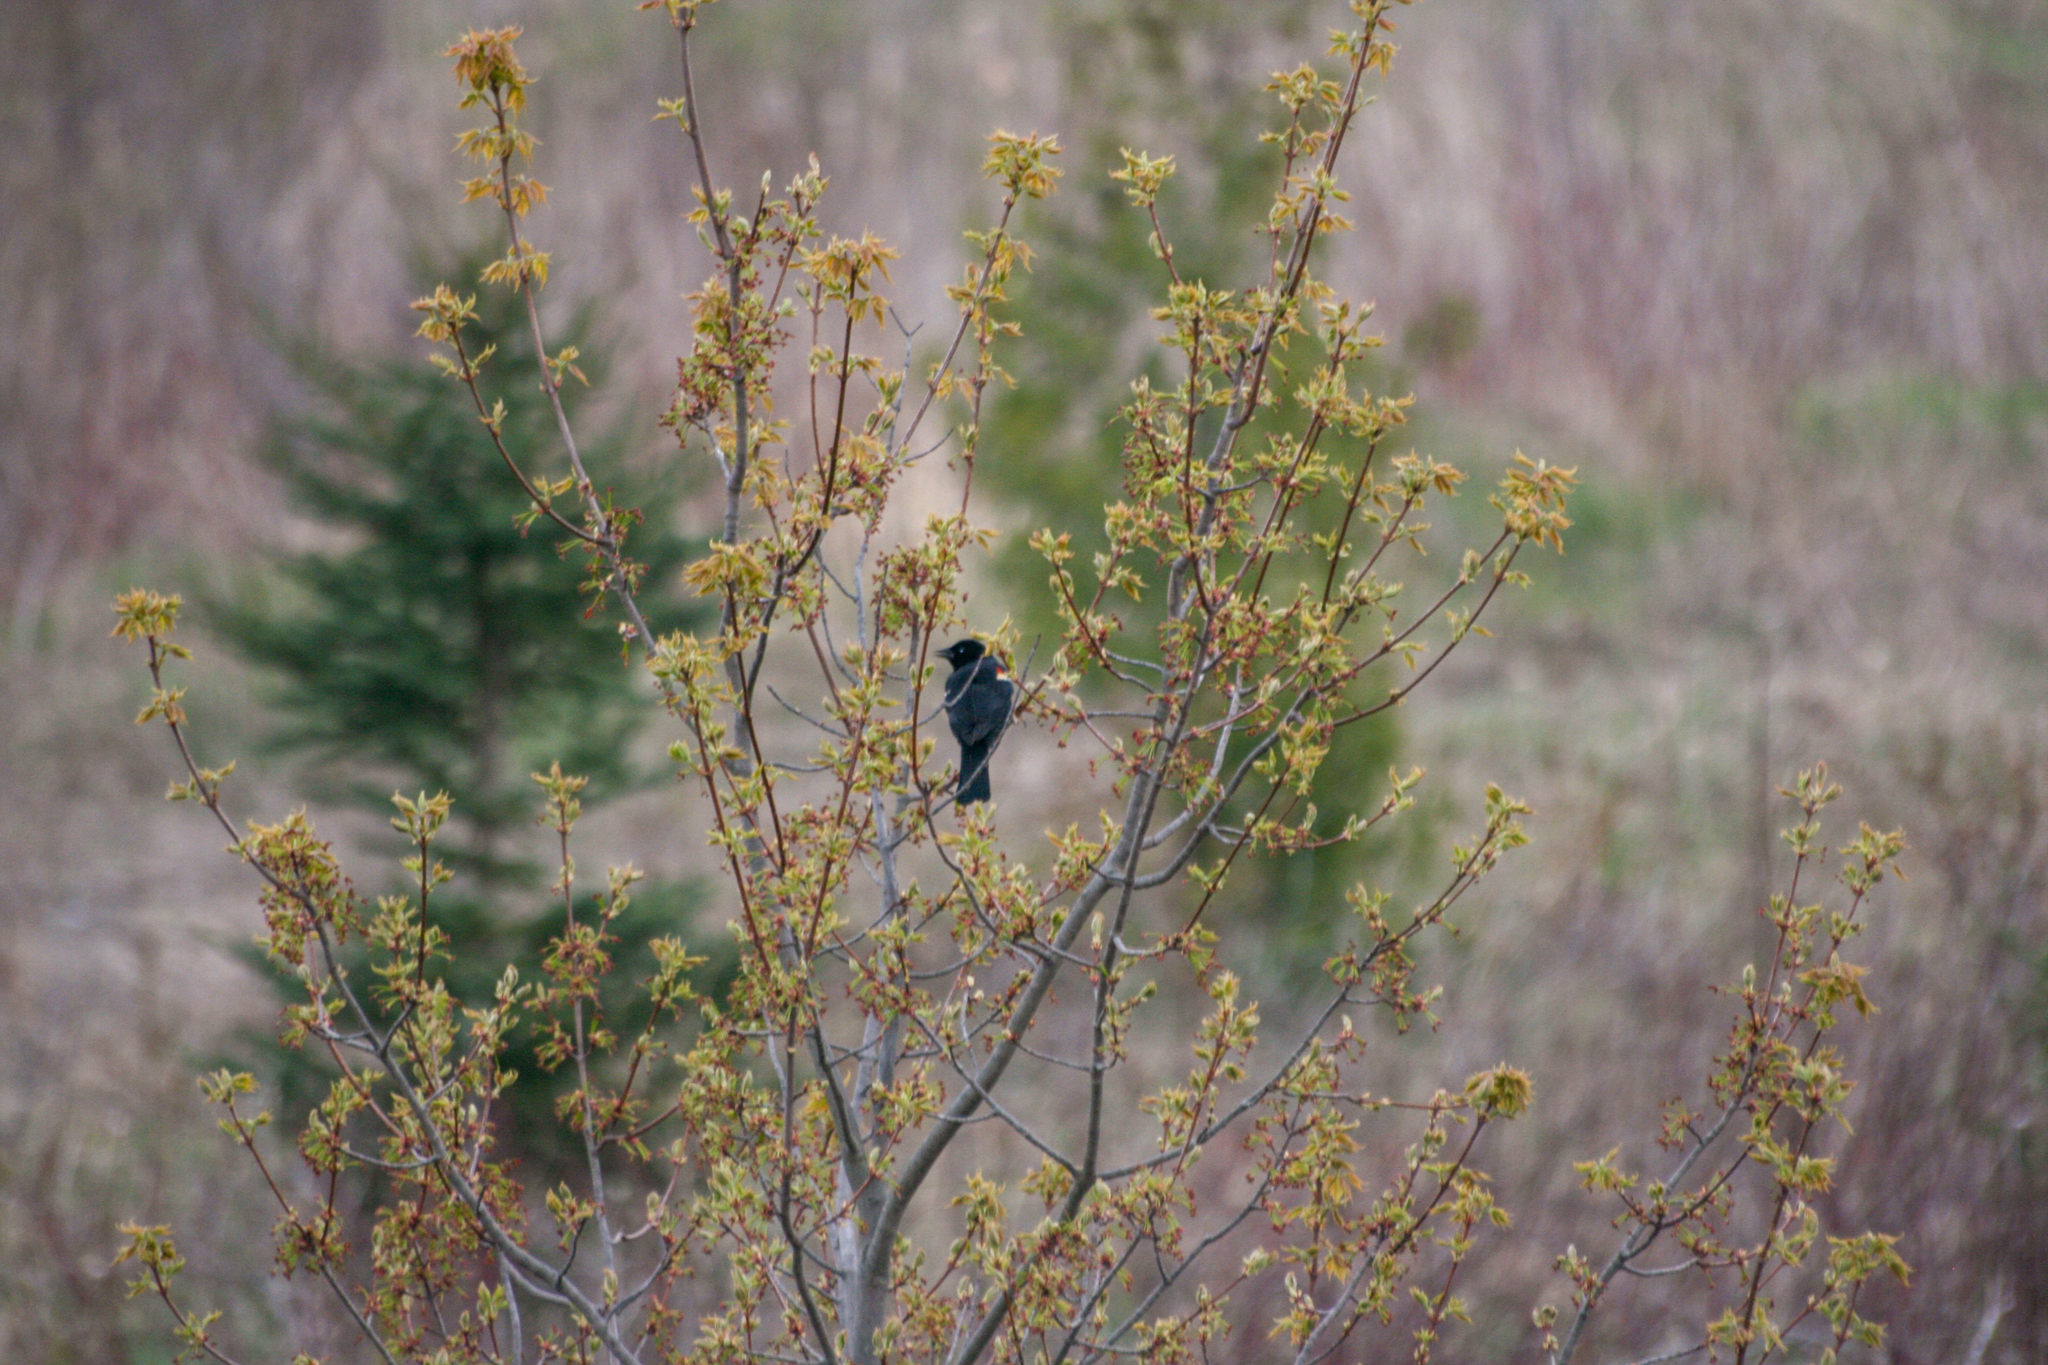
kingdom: Animalia
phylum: Chordata
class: Aves
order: Passeriformes
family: Icteridae
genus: Agelaius
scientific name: Agelaius phoeniceus
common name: Red-winged blackbird
